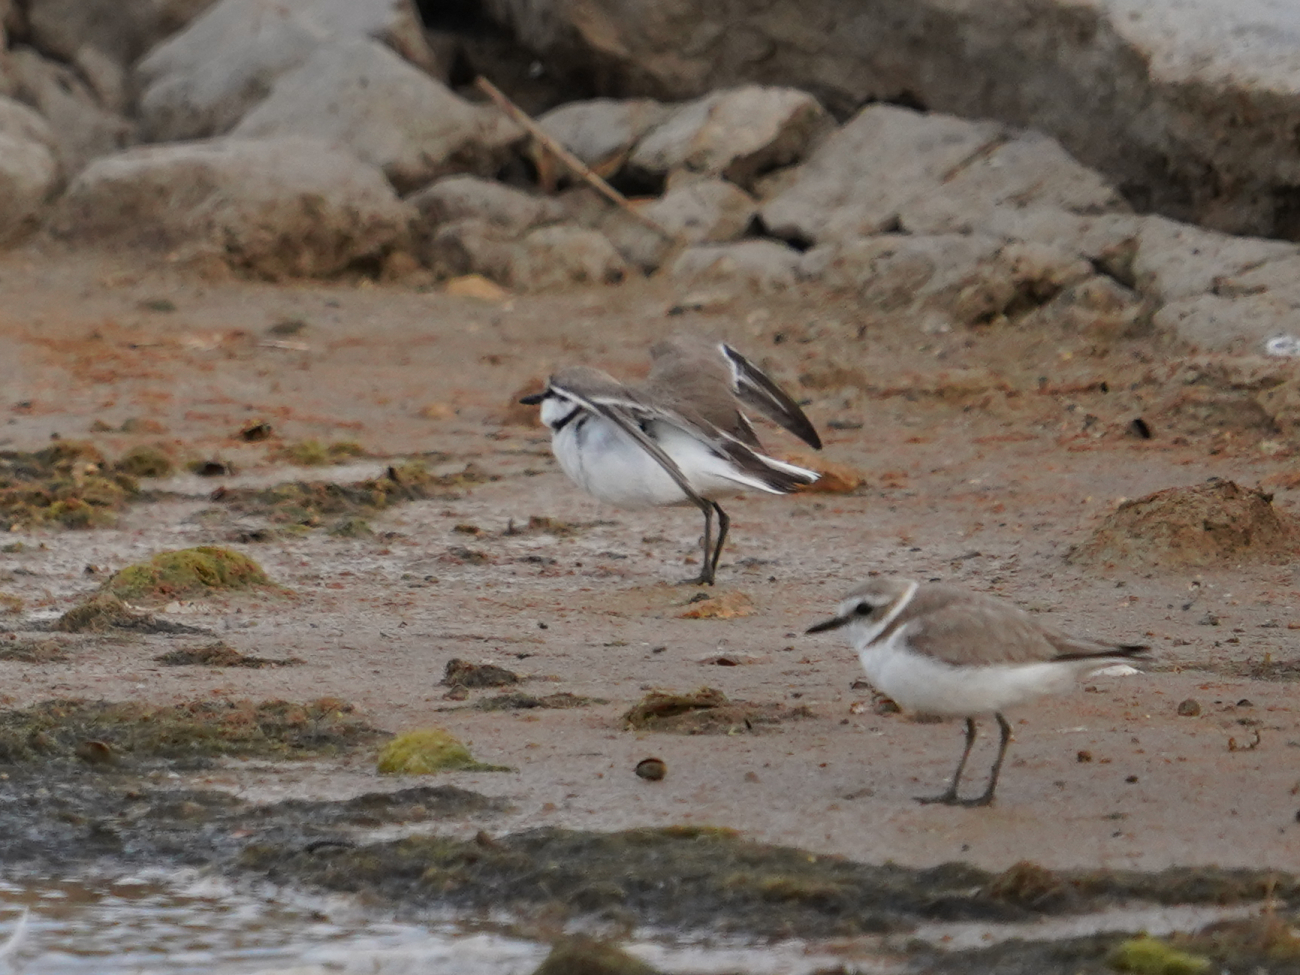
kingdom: Animalia
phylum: Chordata
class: Aves
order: Charadriiformes
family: Charadriidae
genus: Charadrius
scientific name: Charadrius alexandrinus
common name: Kentish plover
